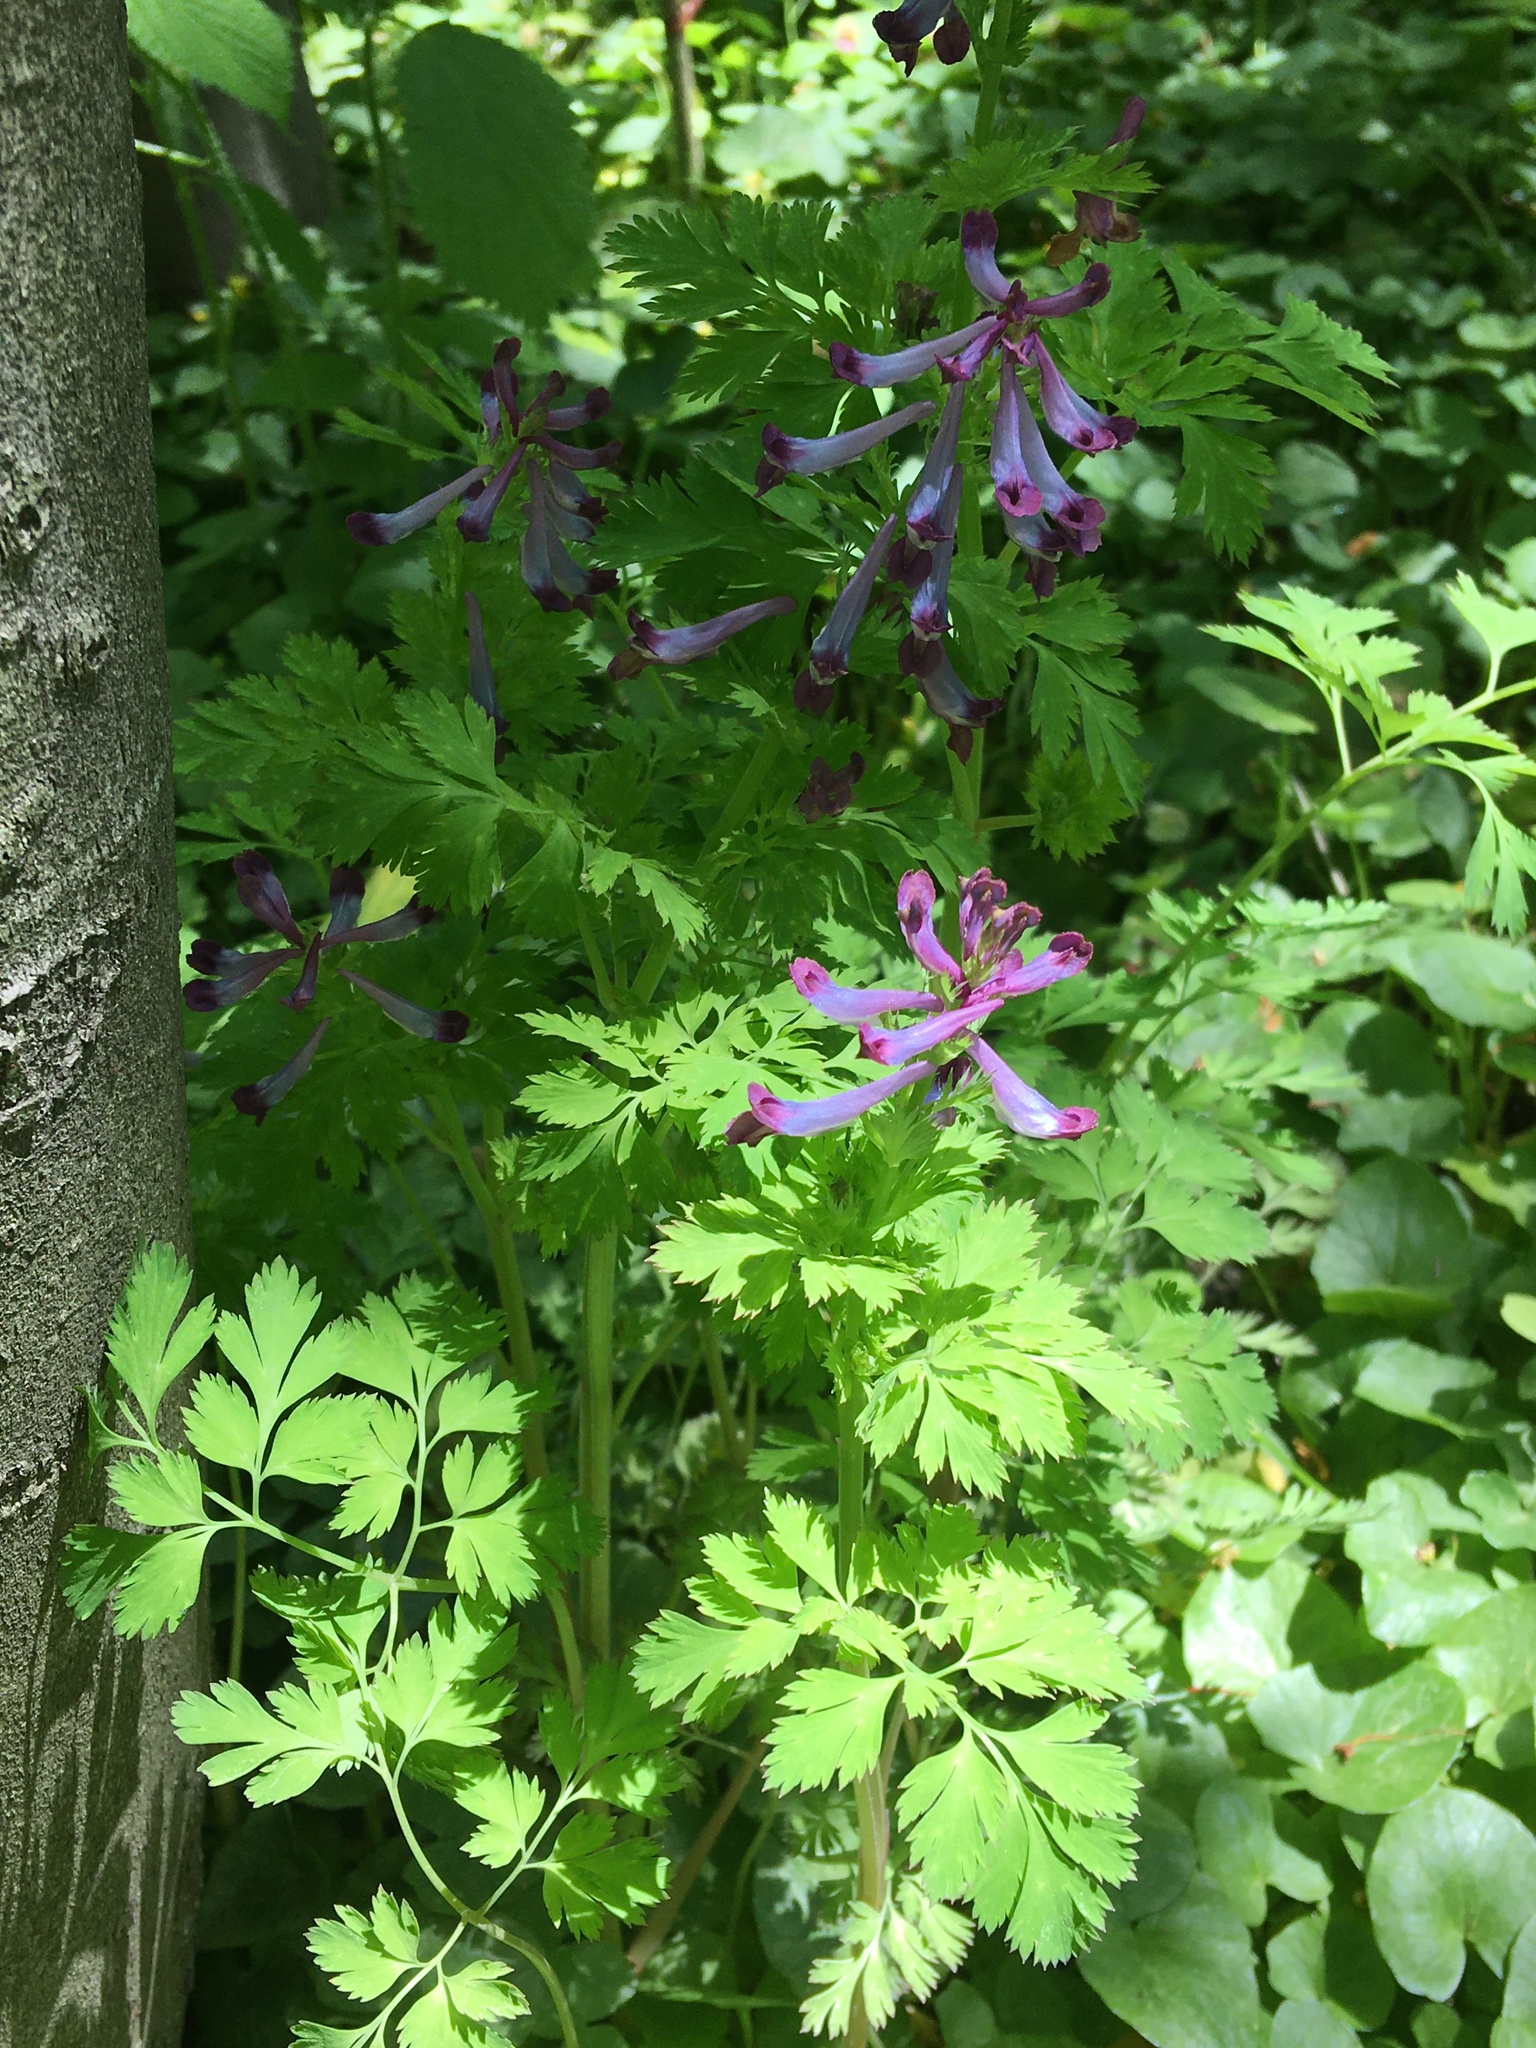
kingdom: Plantae
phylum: Tracheophyta
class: Magnoliopsida
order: Ranunculales
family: Papaveraceae
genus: Corydalis
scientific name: Corydalis incisa
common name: Incised fumewort
